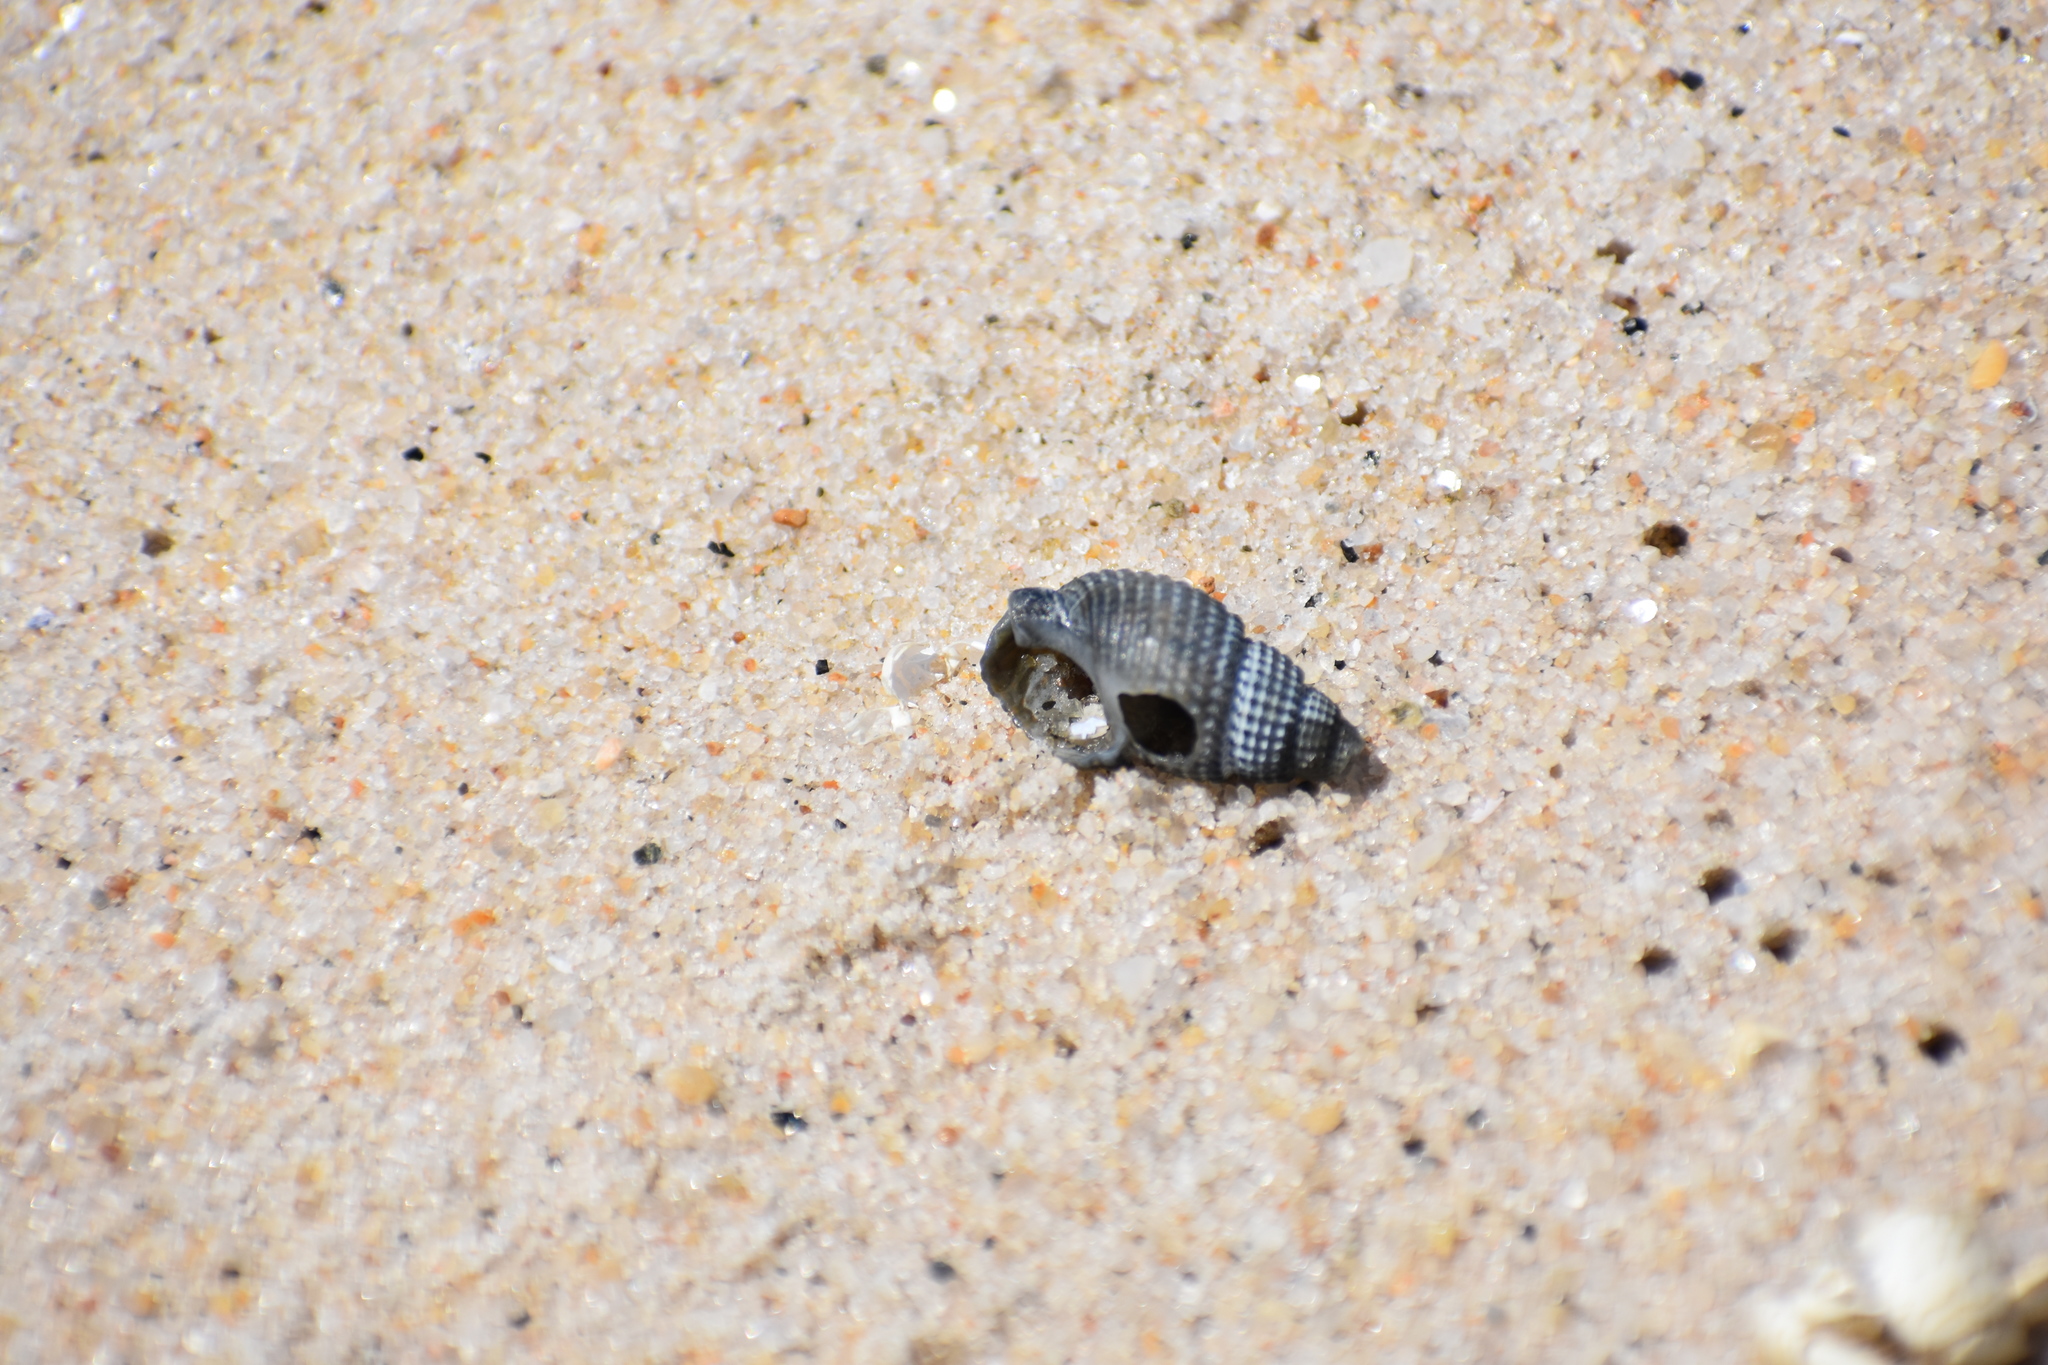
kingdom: Animalia
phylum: Mollusca
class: Gastropoda
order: Neogastropoda
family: Nassariidae
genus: Ilyanassa
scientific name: Ilyanassa trivittata
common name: Three-line mudsnail
